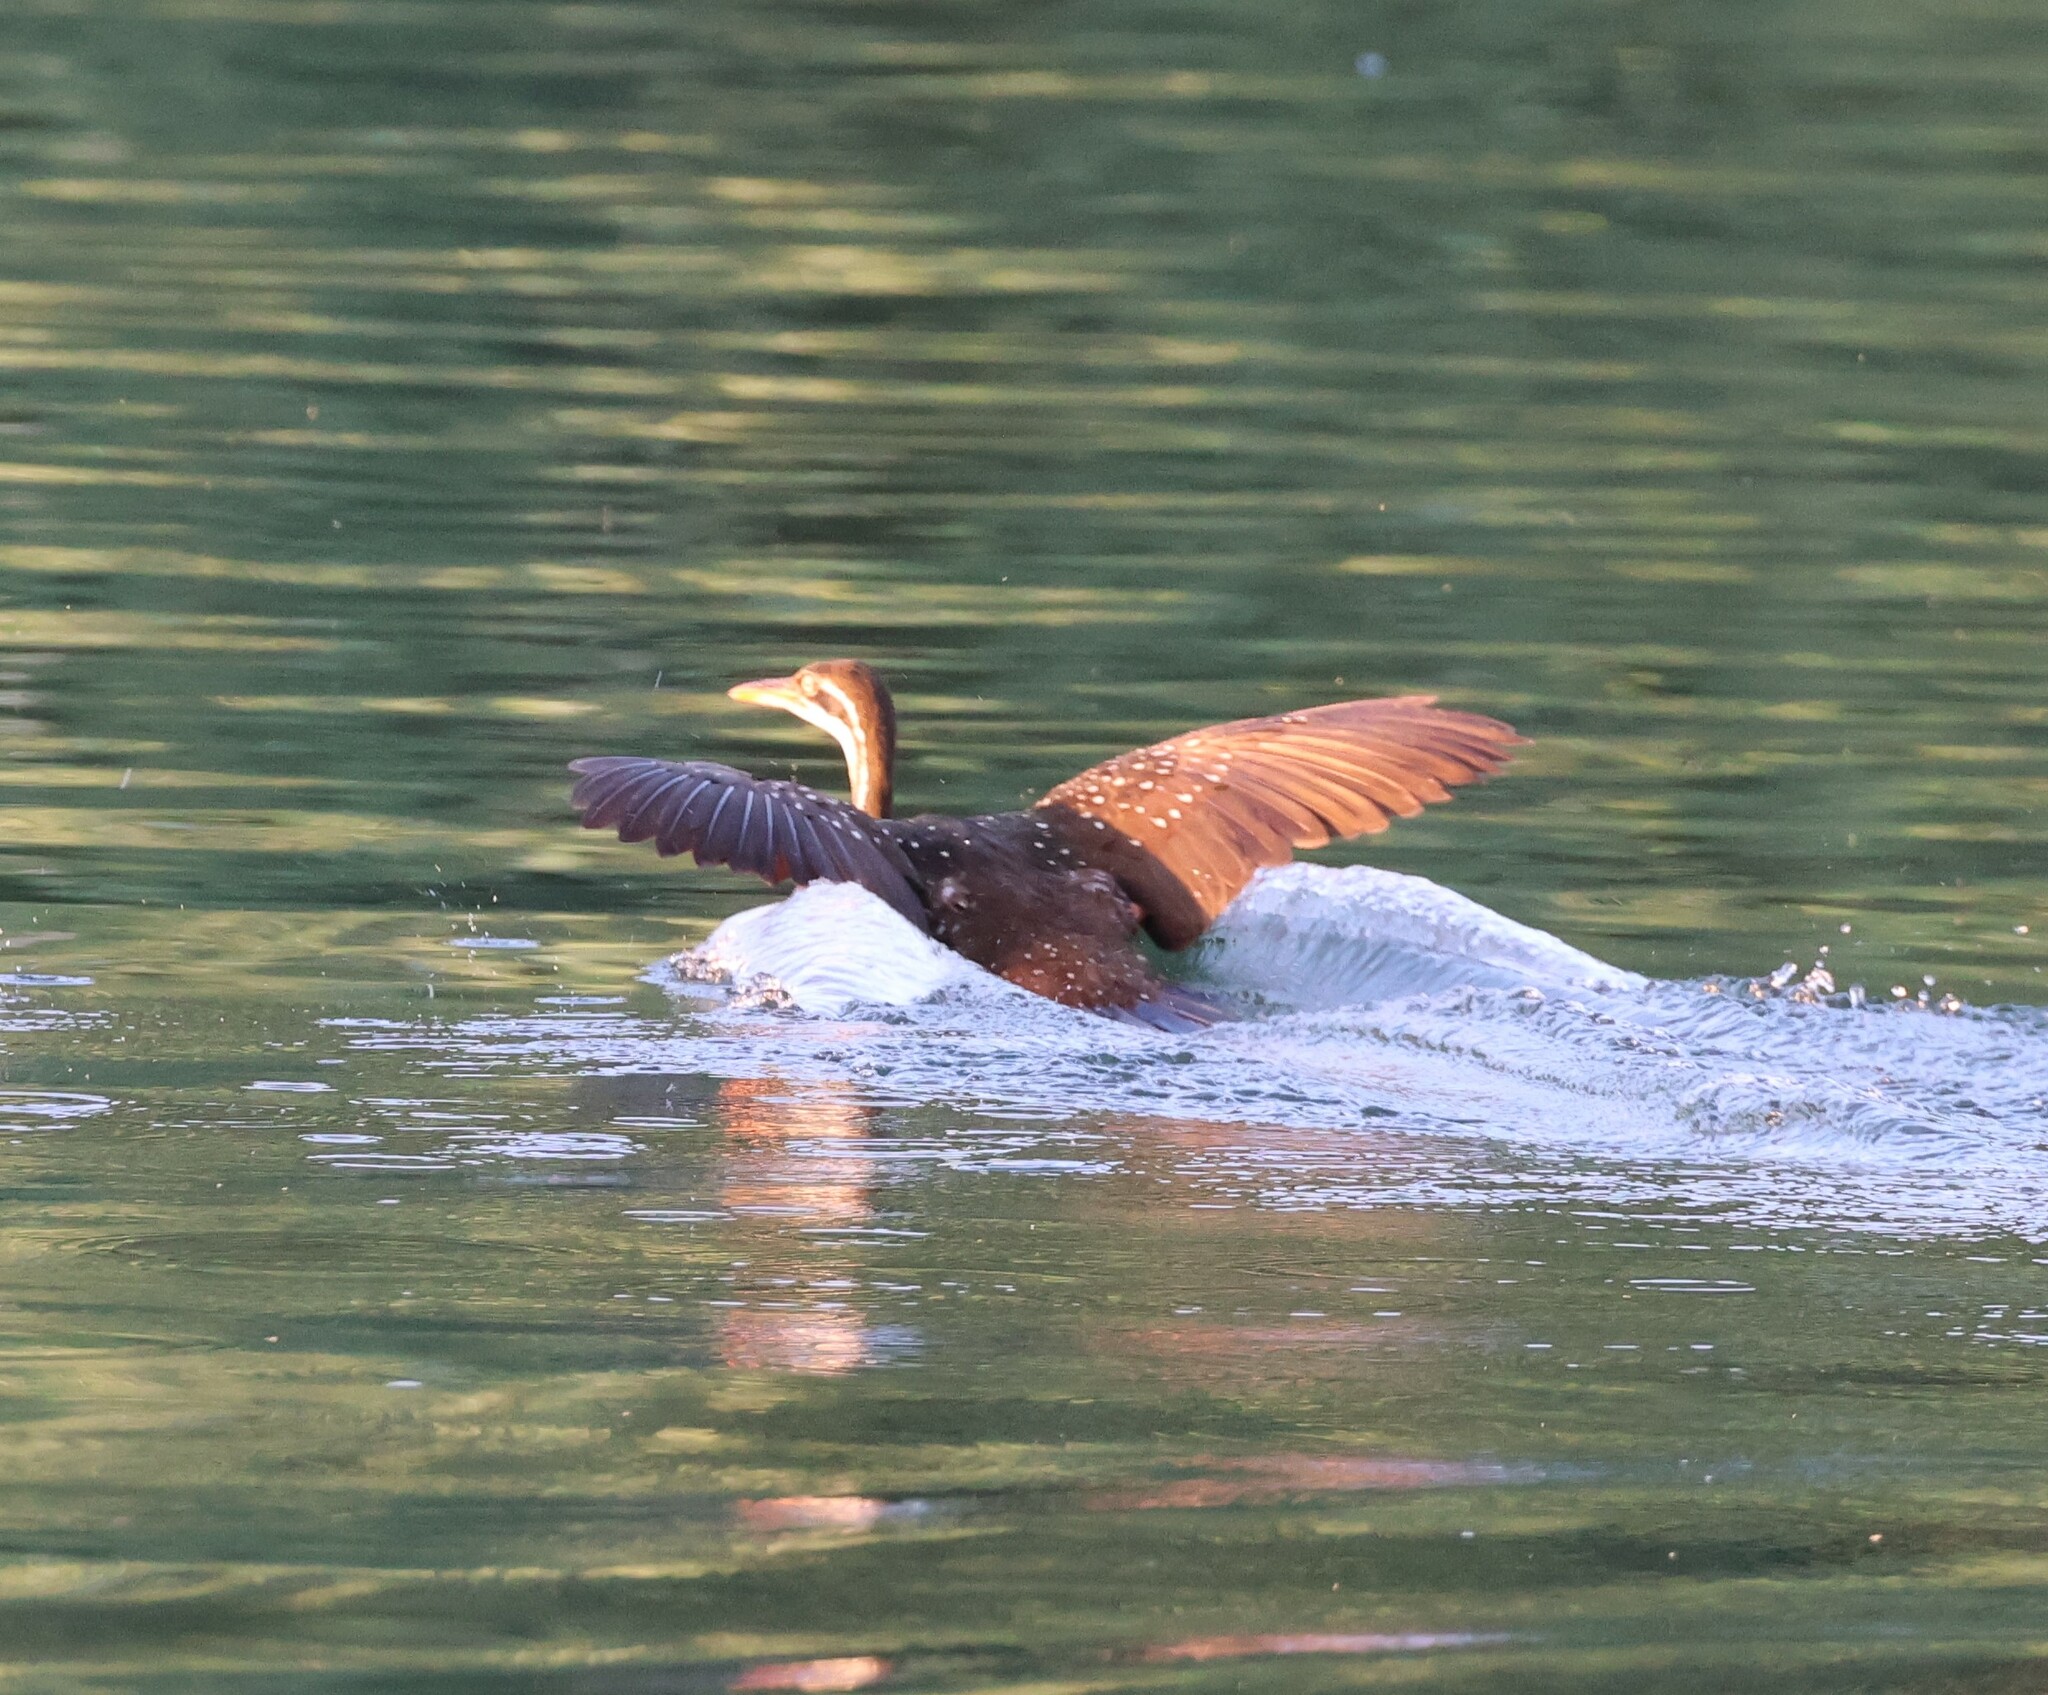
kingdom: Animalia
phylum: Chordata
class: Aves
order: Gruiformes
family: Heliornithidae
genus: Podica
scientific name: Podica senegalensis
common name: African finfoot
